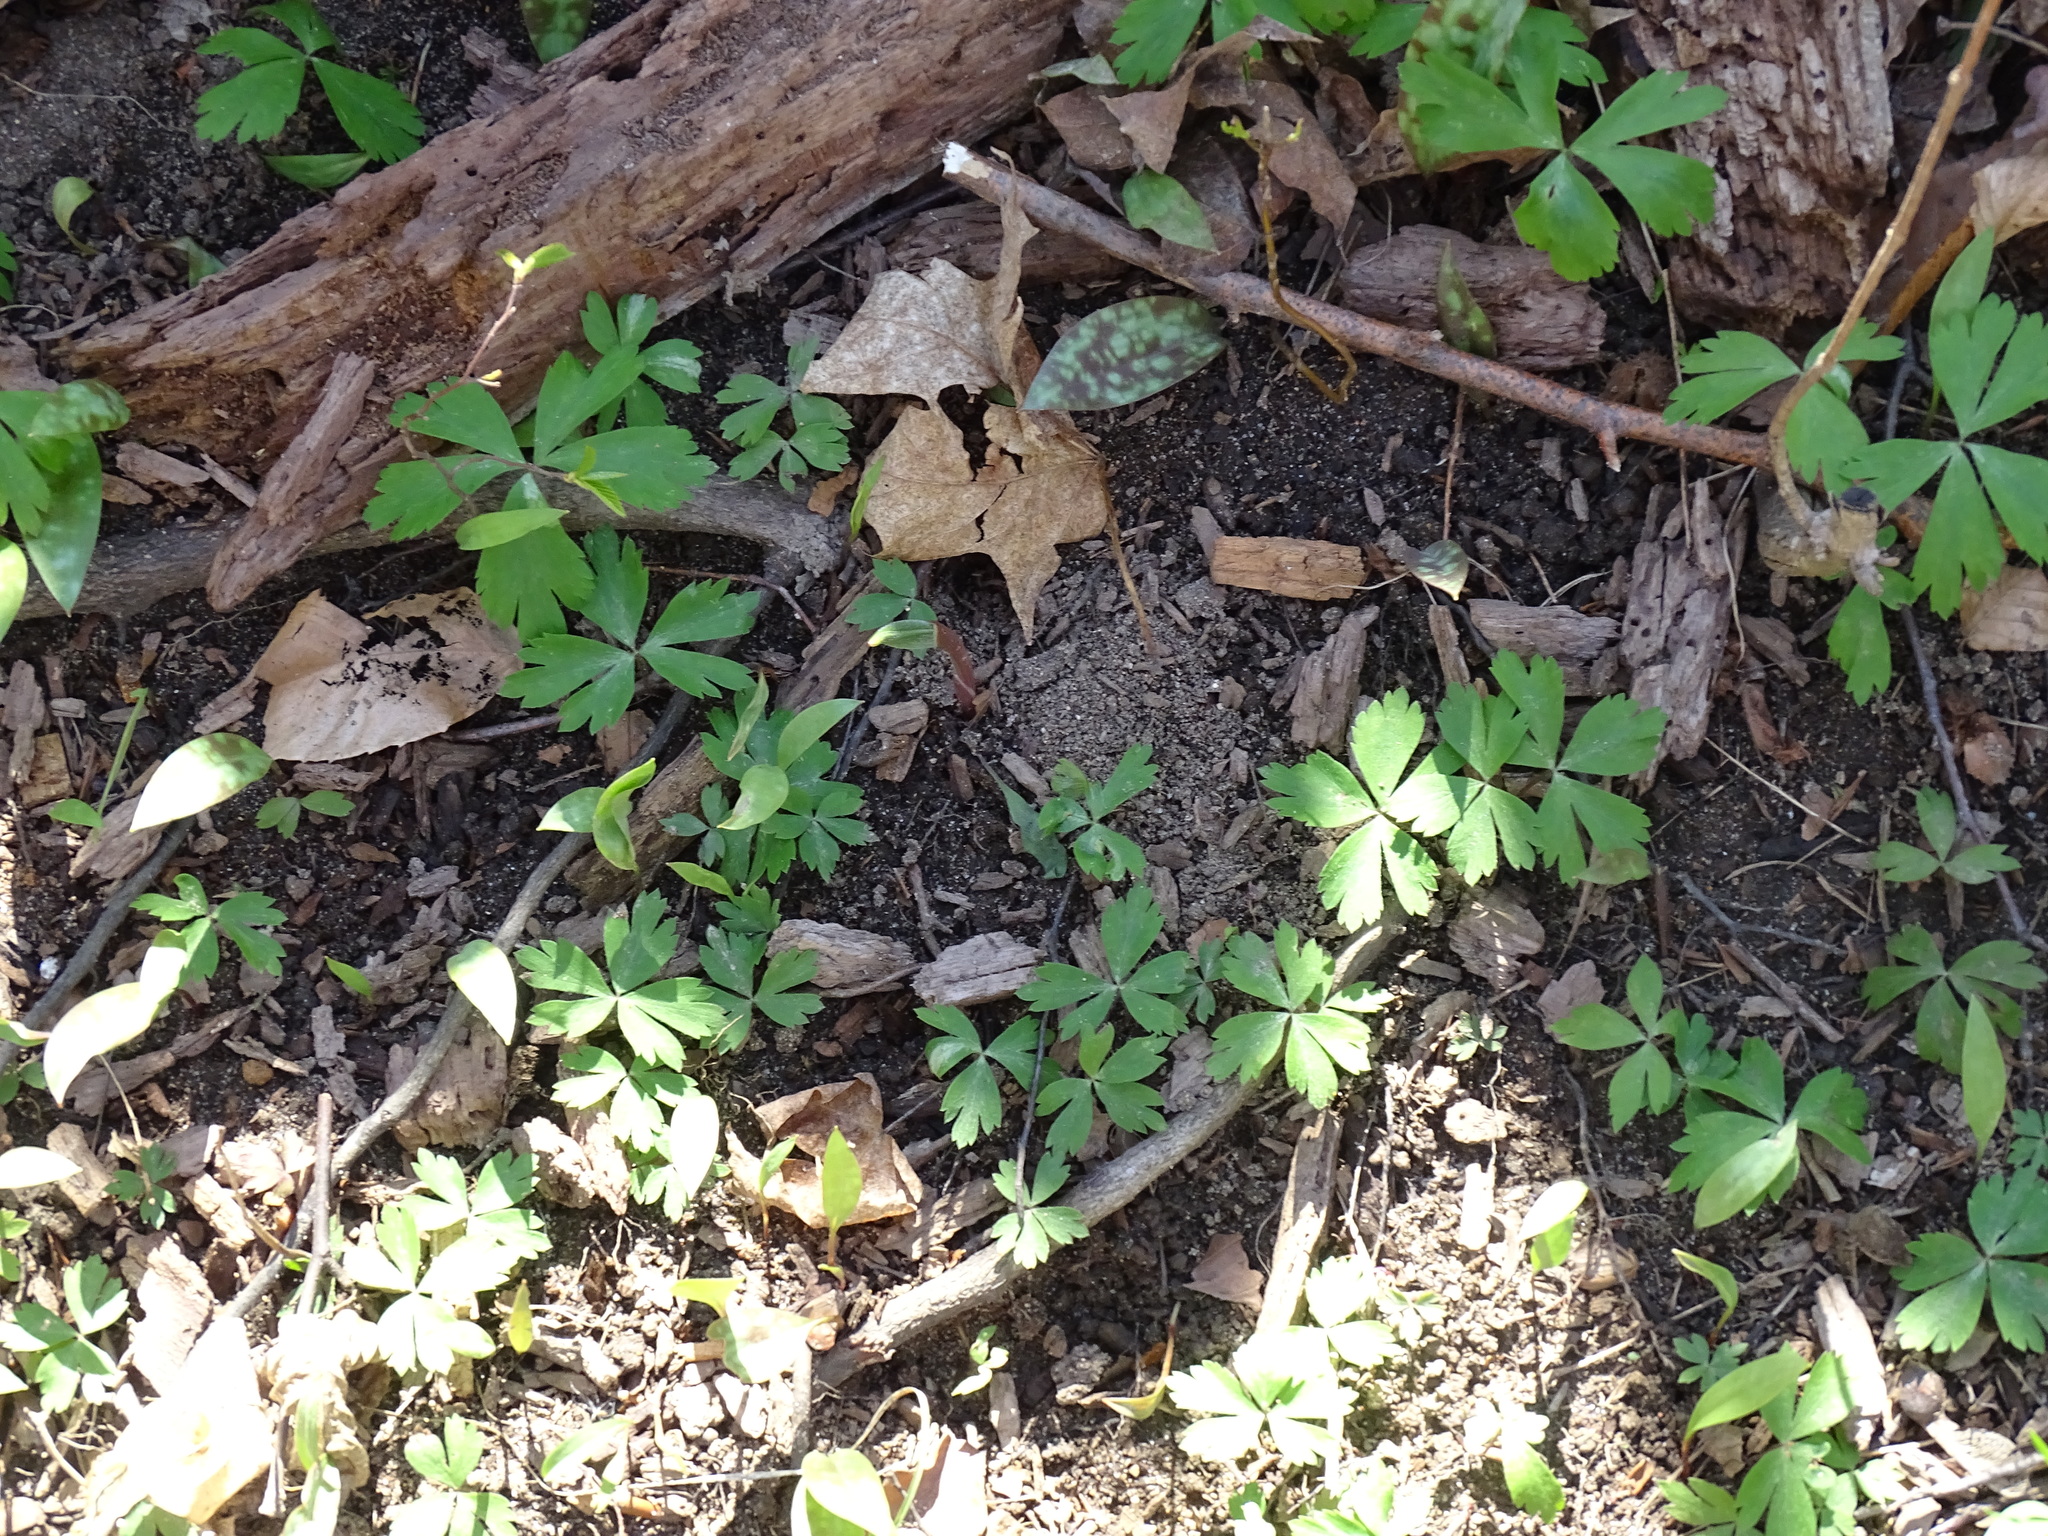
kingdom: Plantae
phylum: Tracheophyta
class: Magnoliopsida
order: Ranunculales
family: Ranunculaceae
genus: Anemone
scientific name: Anemone quinquefolia
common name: Wood anemone
